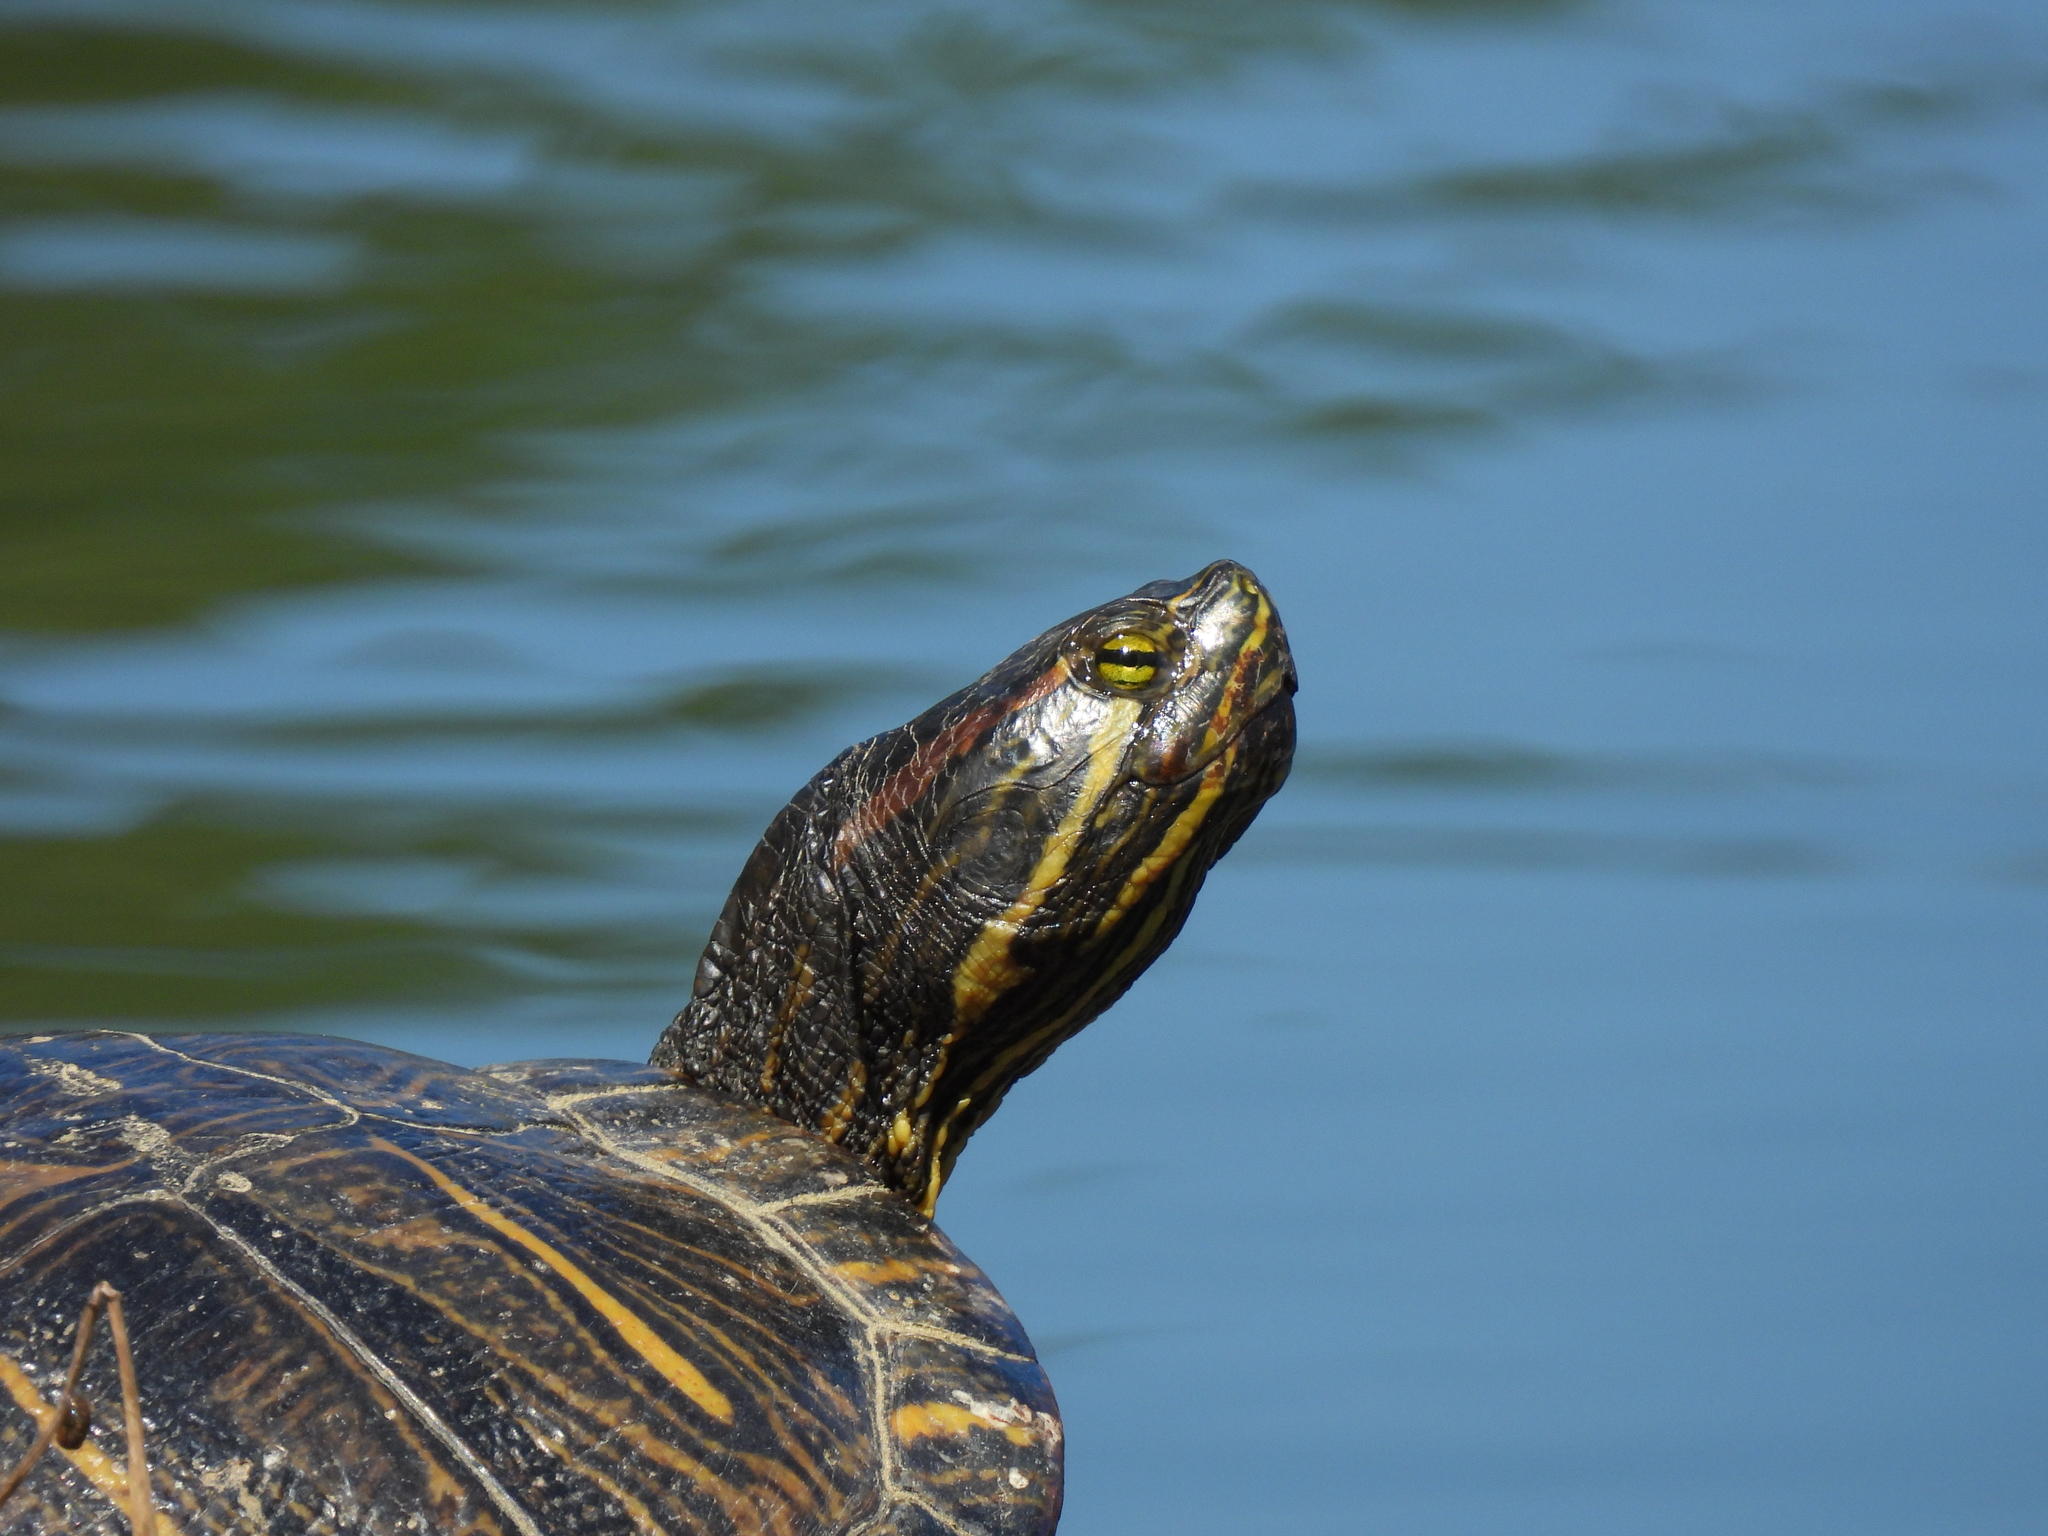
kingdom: Animalia
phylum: Chordata
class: Testudines
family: Emydidae
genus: Trachemys
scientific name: Trachemys scripta
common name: Slider
